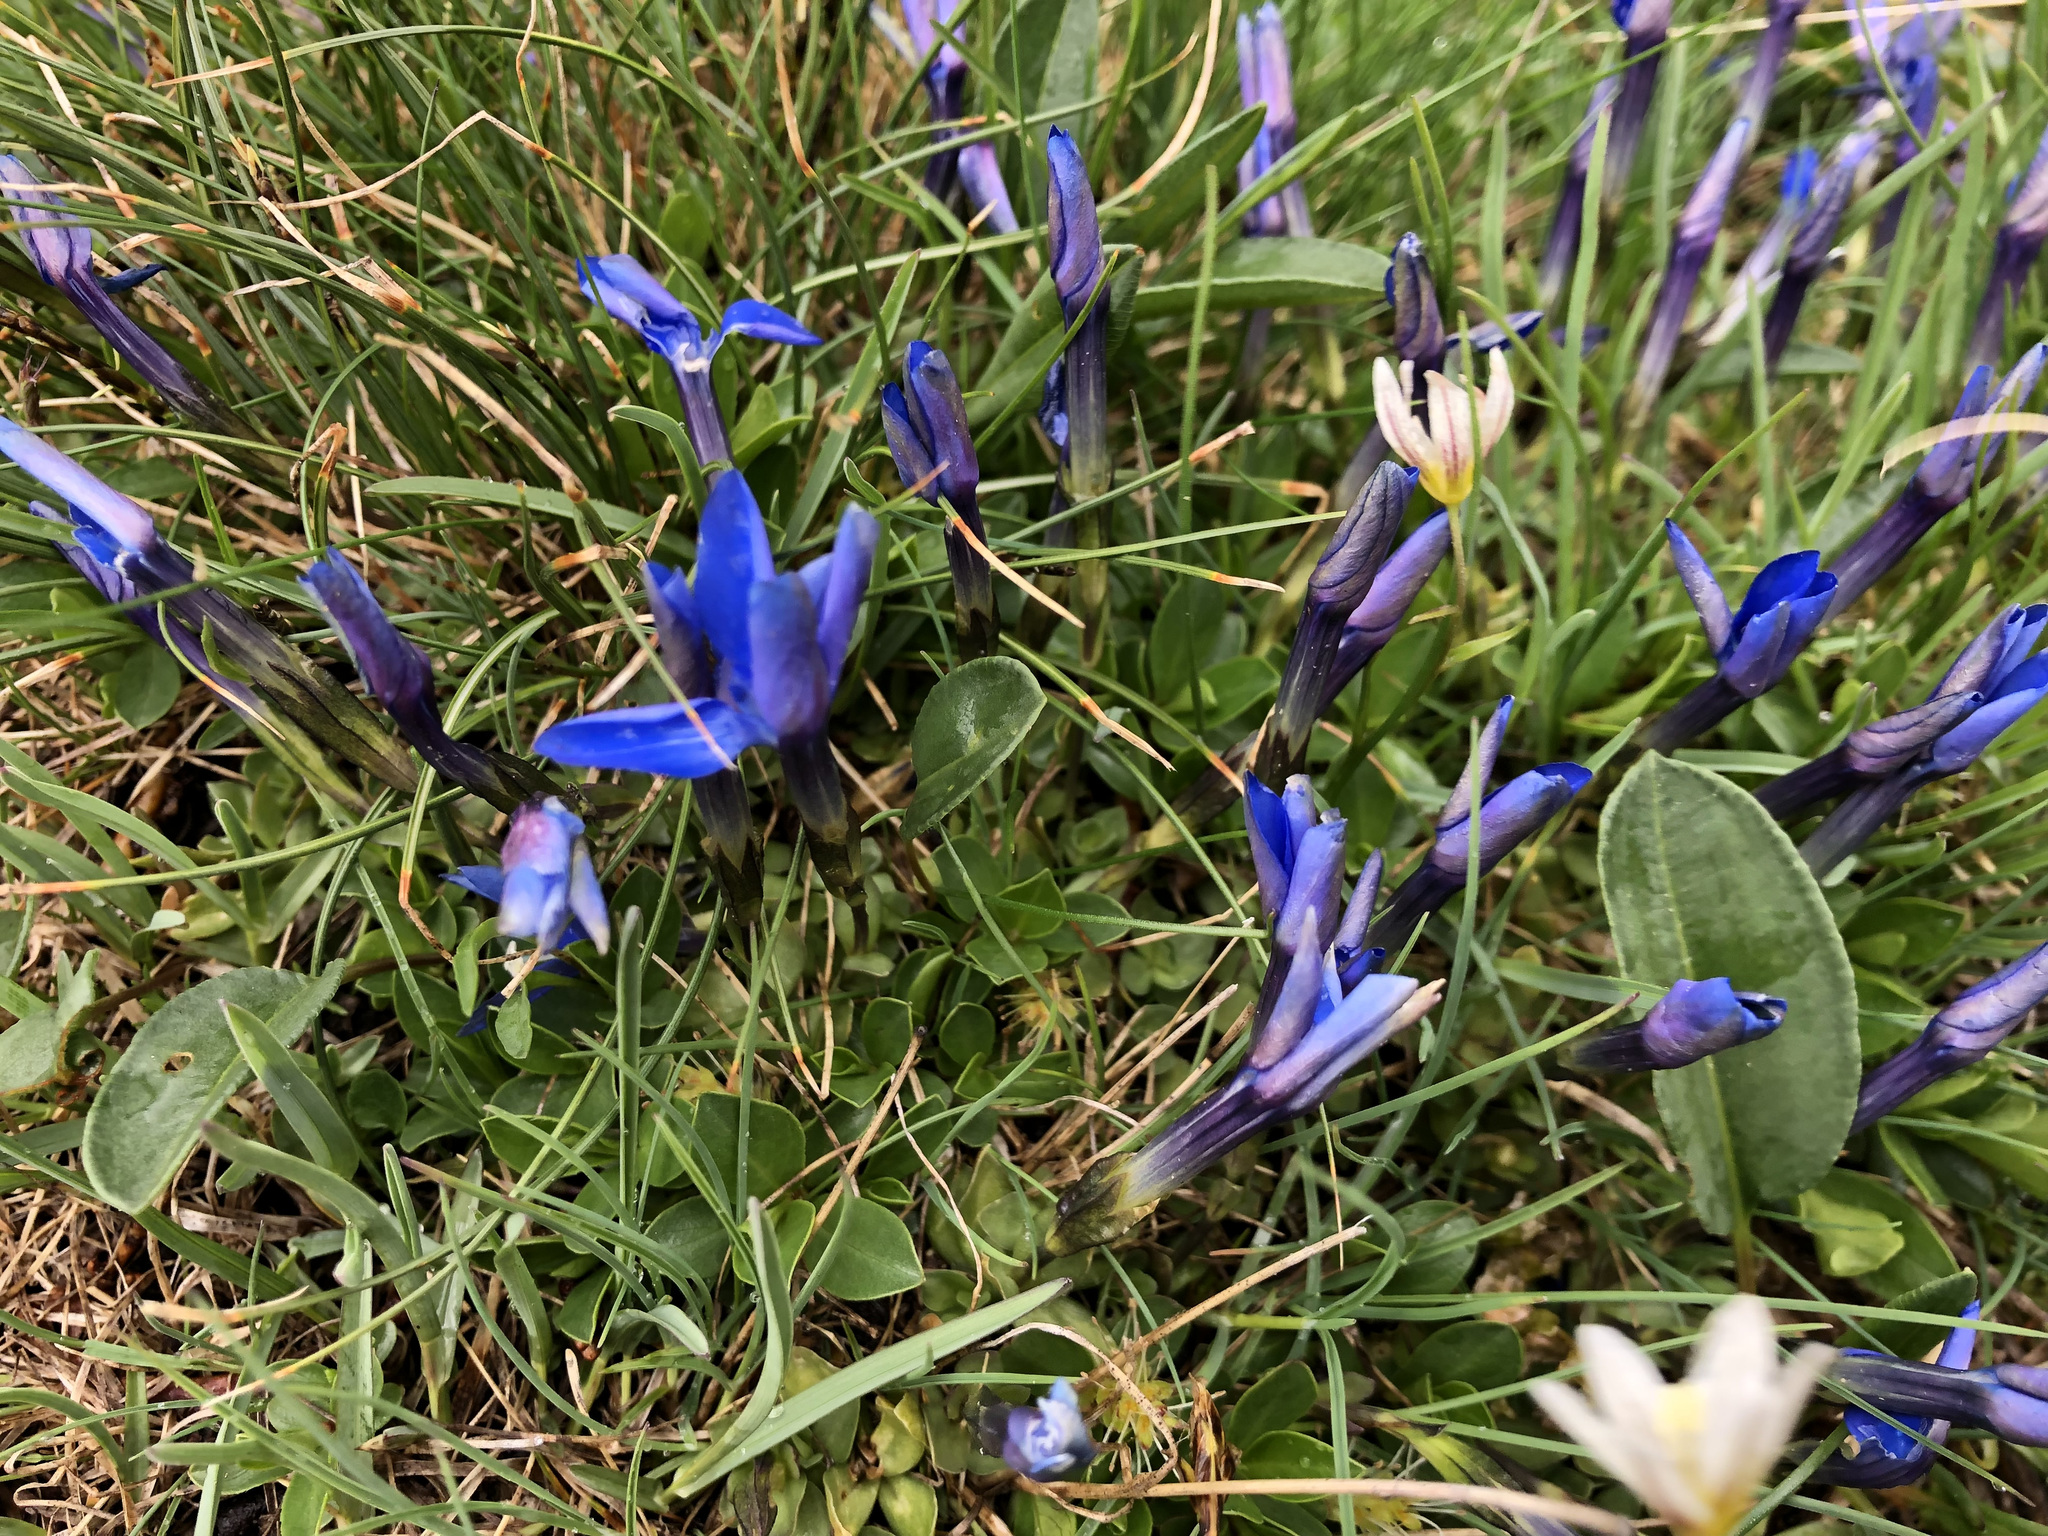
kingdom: Plantae
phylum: Tracheophyta
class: Magnoliopsida
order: Gentianales
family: Gentianaceae
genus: Gentiana
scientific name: Gentiana brachyphylla
